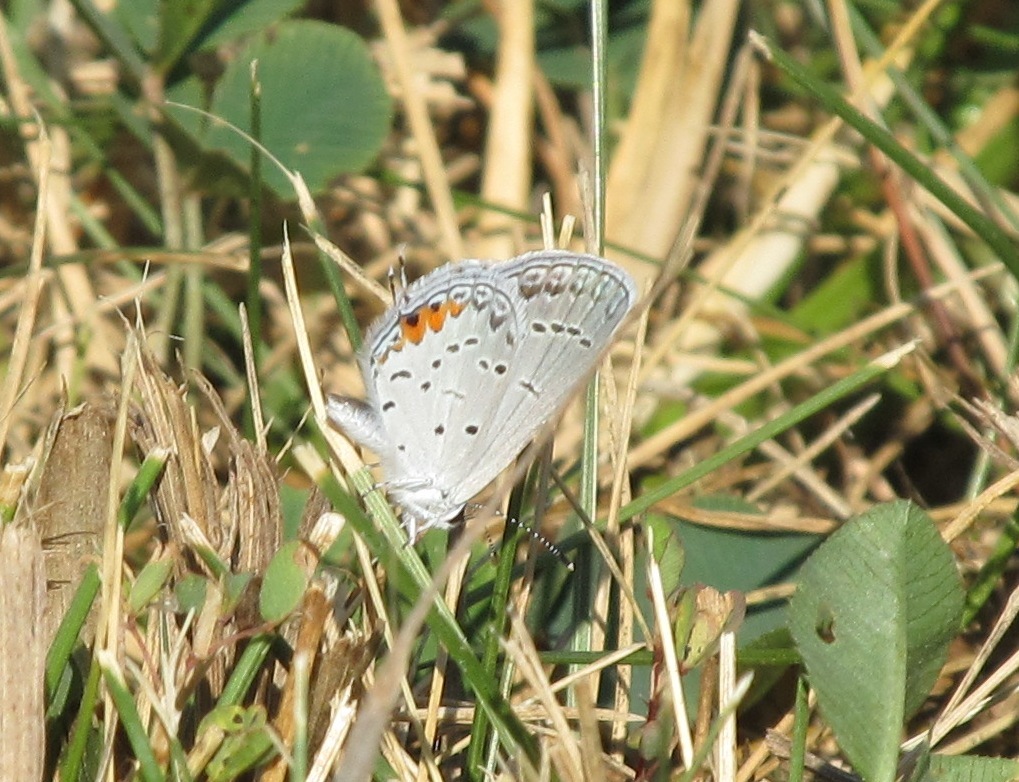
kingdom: Animalia
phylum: Arthropoda
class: Insecta
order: Lepidoptera
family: Lycaenidae
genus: Elkalyce
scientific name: Elkalyce comyntas
